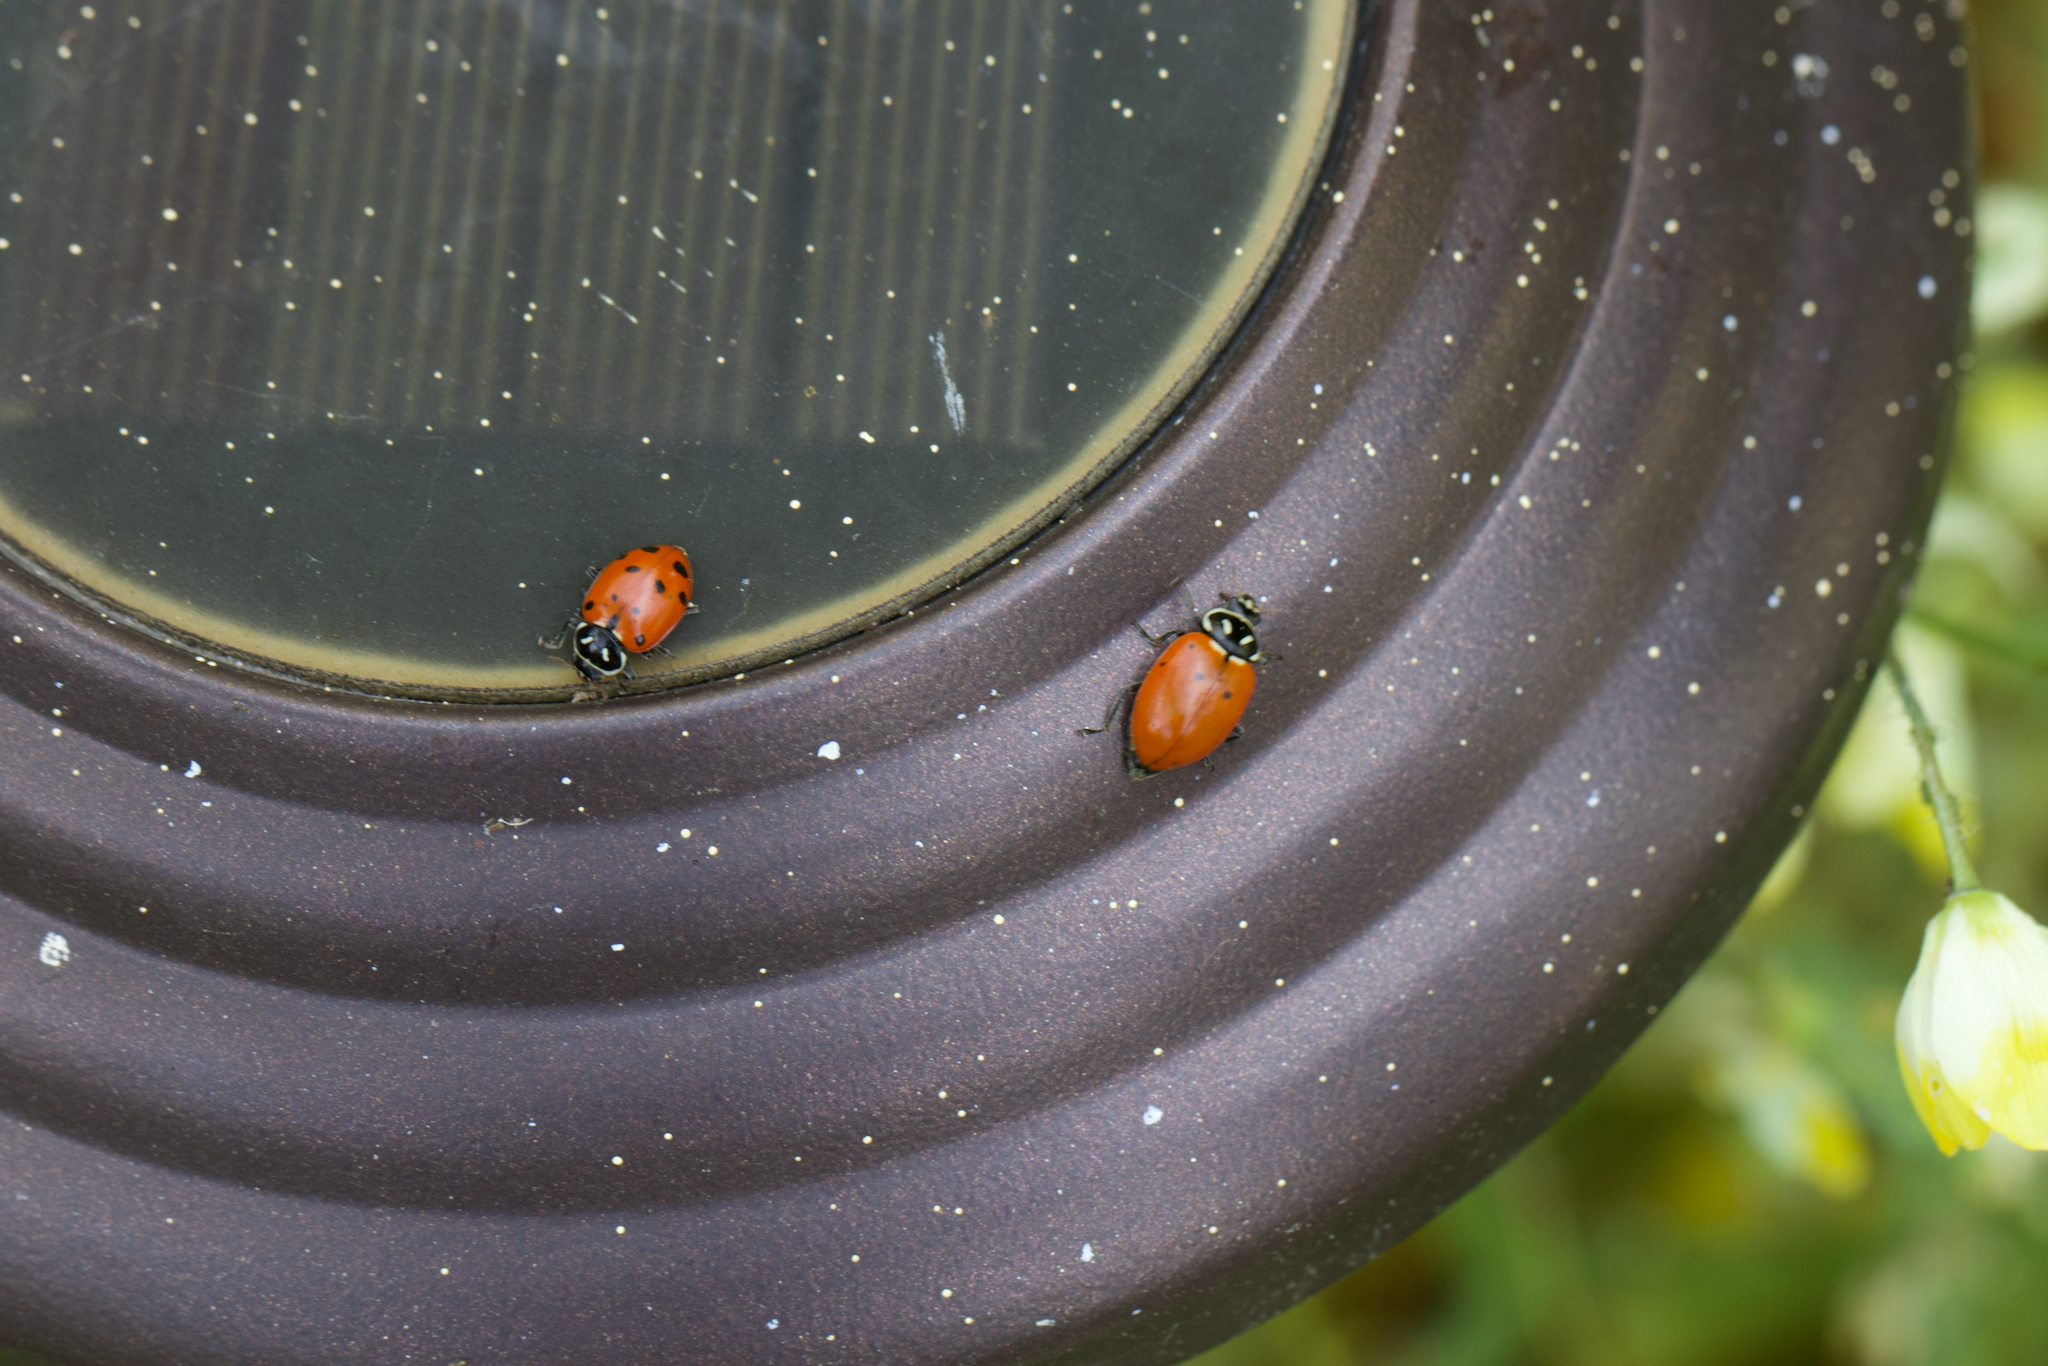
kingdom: Animalia
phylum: Arthropoda
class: Insecta
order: Coleoptera
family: Coccinellidae
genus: Hippodamia
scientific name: Hippodamia convergens
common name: Convergent lady beetle
